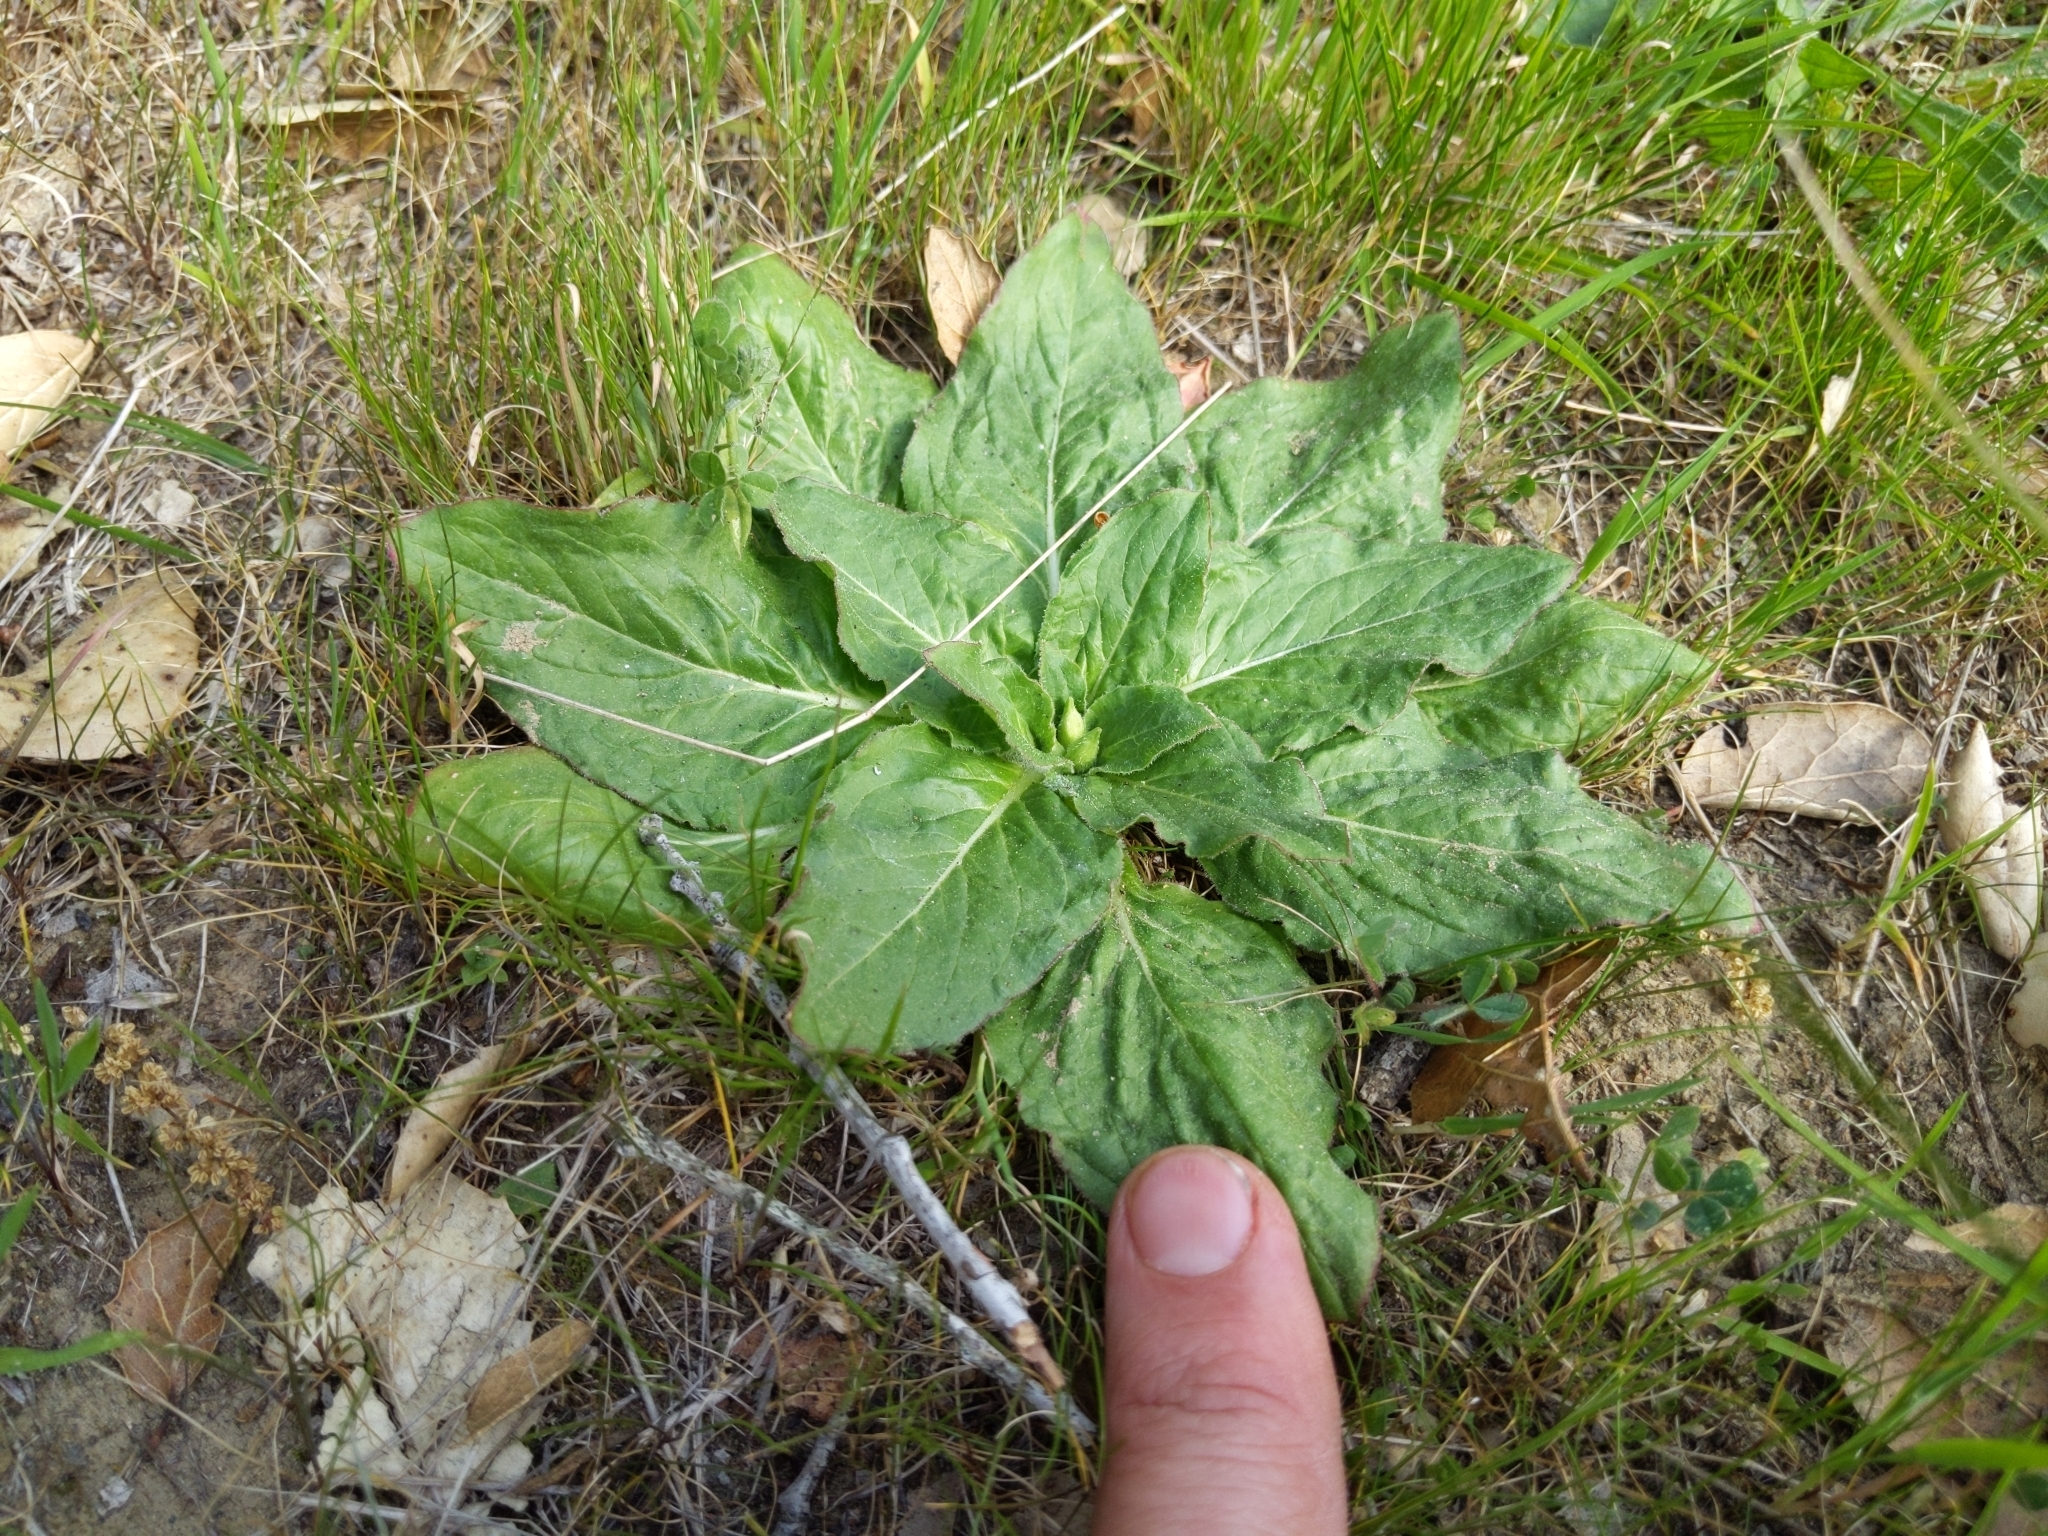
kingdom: Plantae
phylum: Tracheophyta
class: Magnoliopsida
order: Myrtales
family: Onagraceae
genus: Taraxia
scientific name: Taraxia ovata
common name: Goldeneggs
